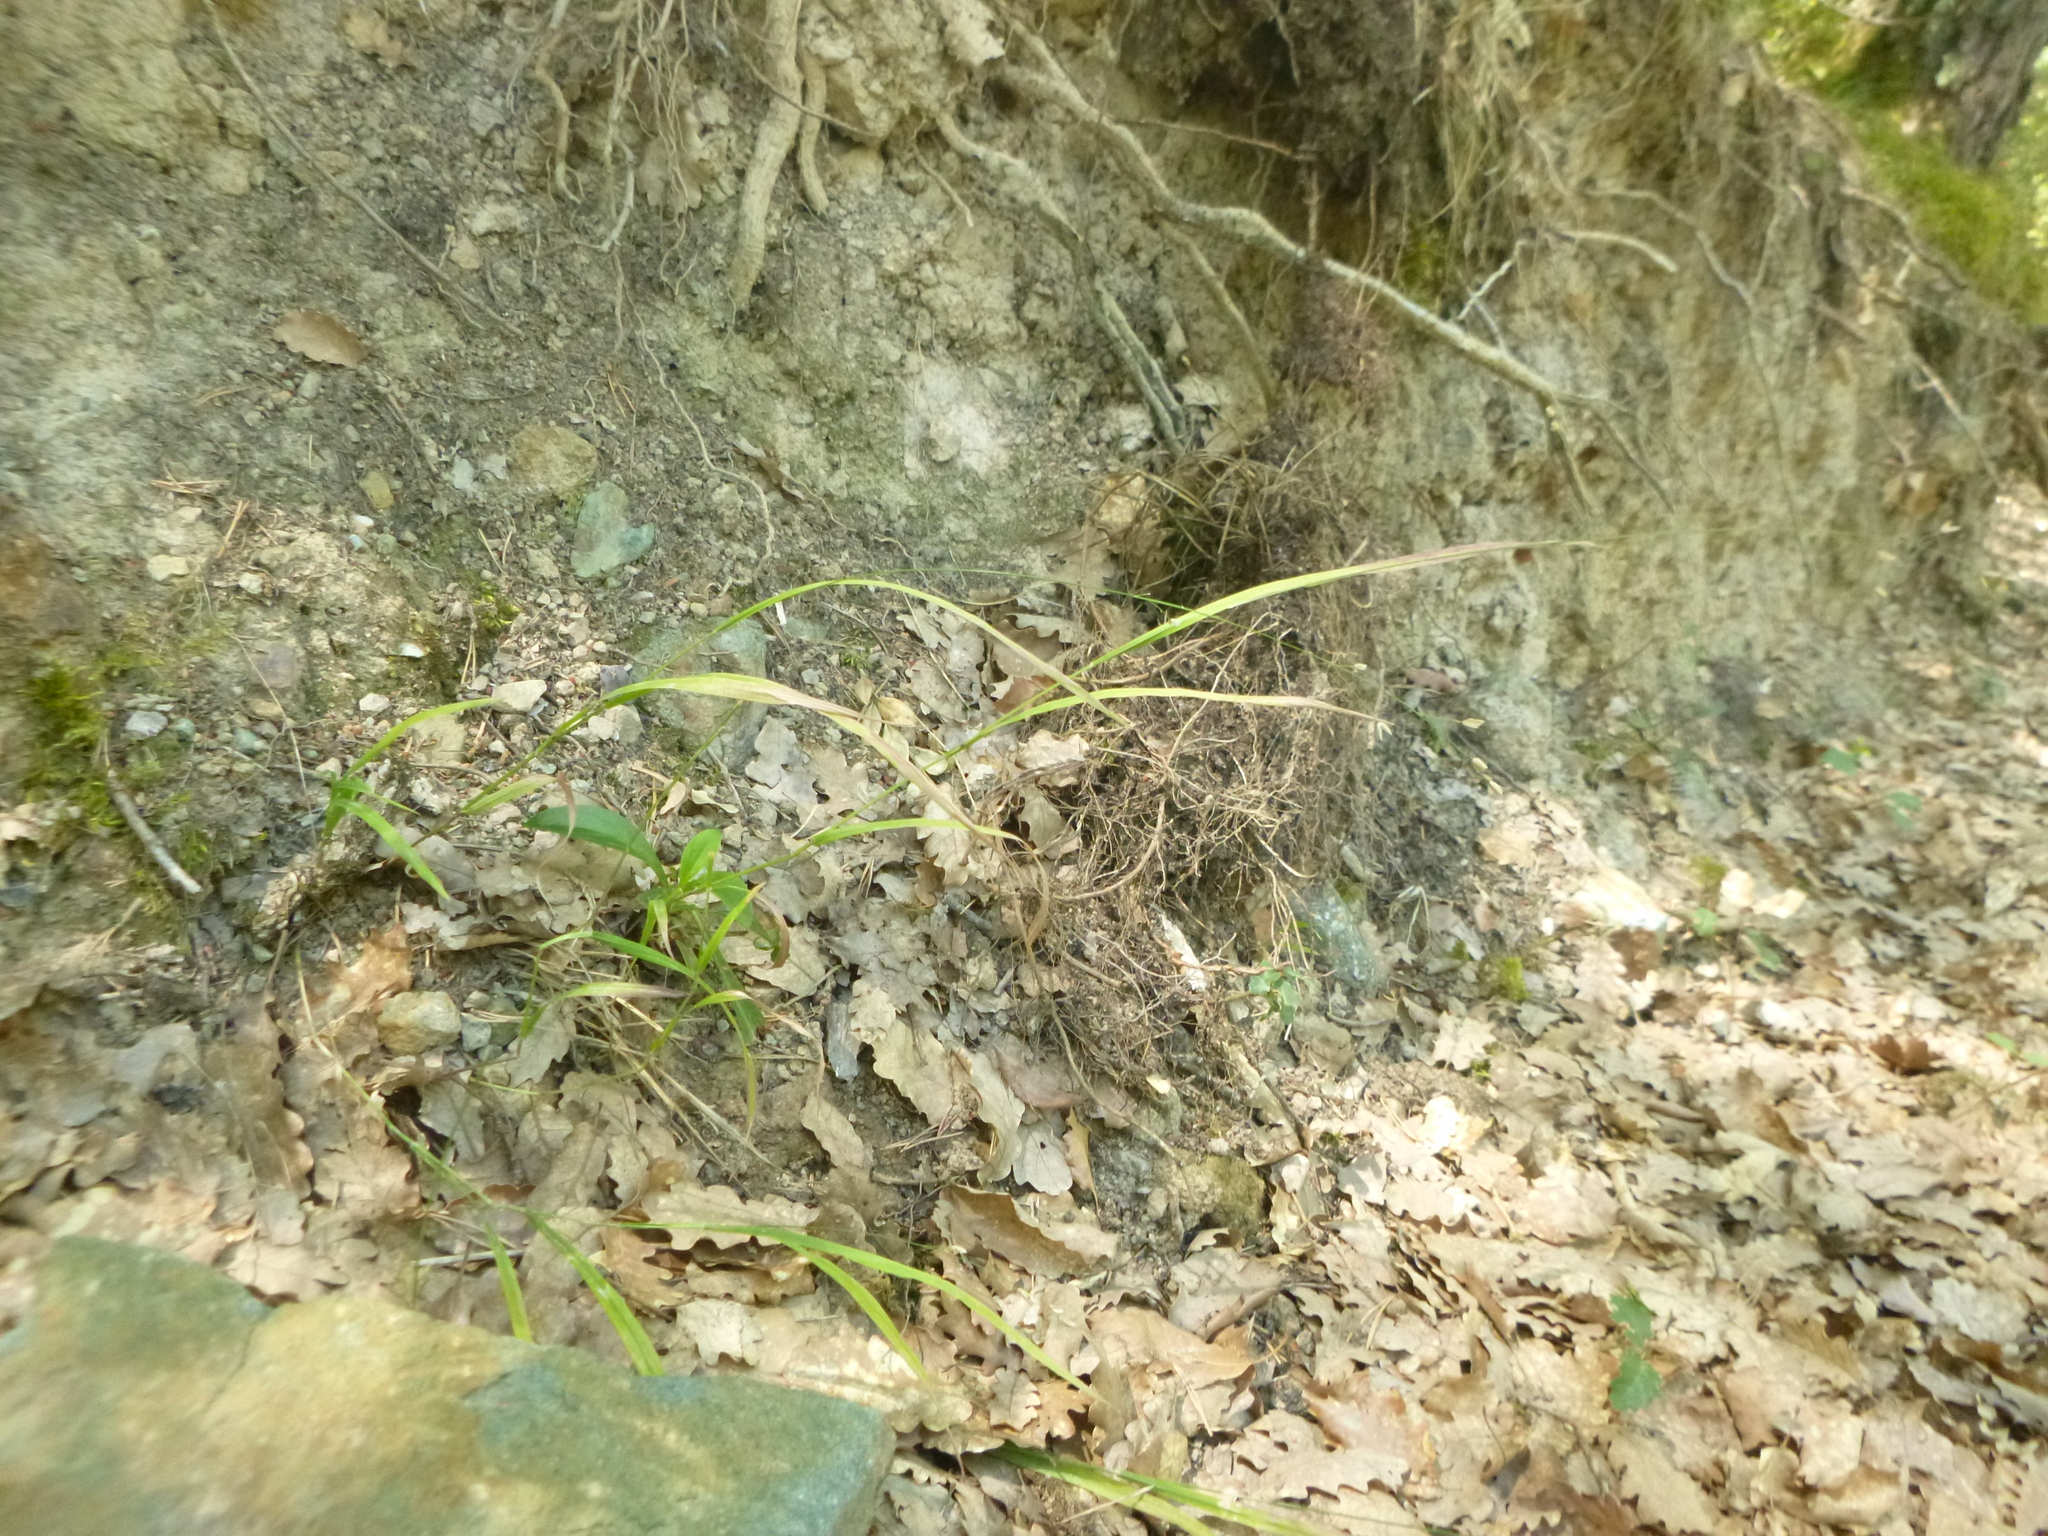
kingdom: Plantae
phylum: Tracheophyta
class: Liliopsida
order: Poales
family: Poaceae
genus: Melica
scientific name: Melica uniflora
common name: Wood melick
